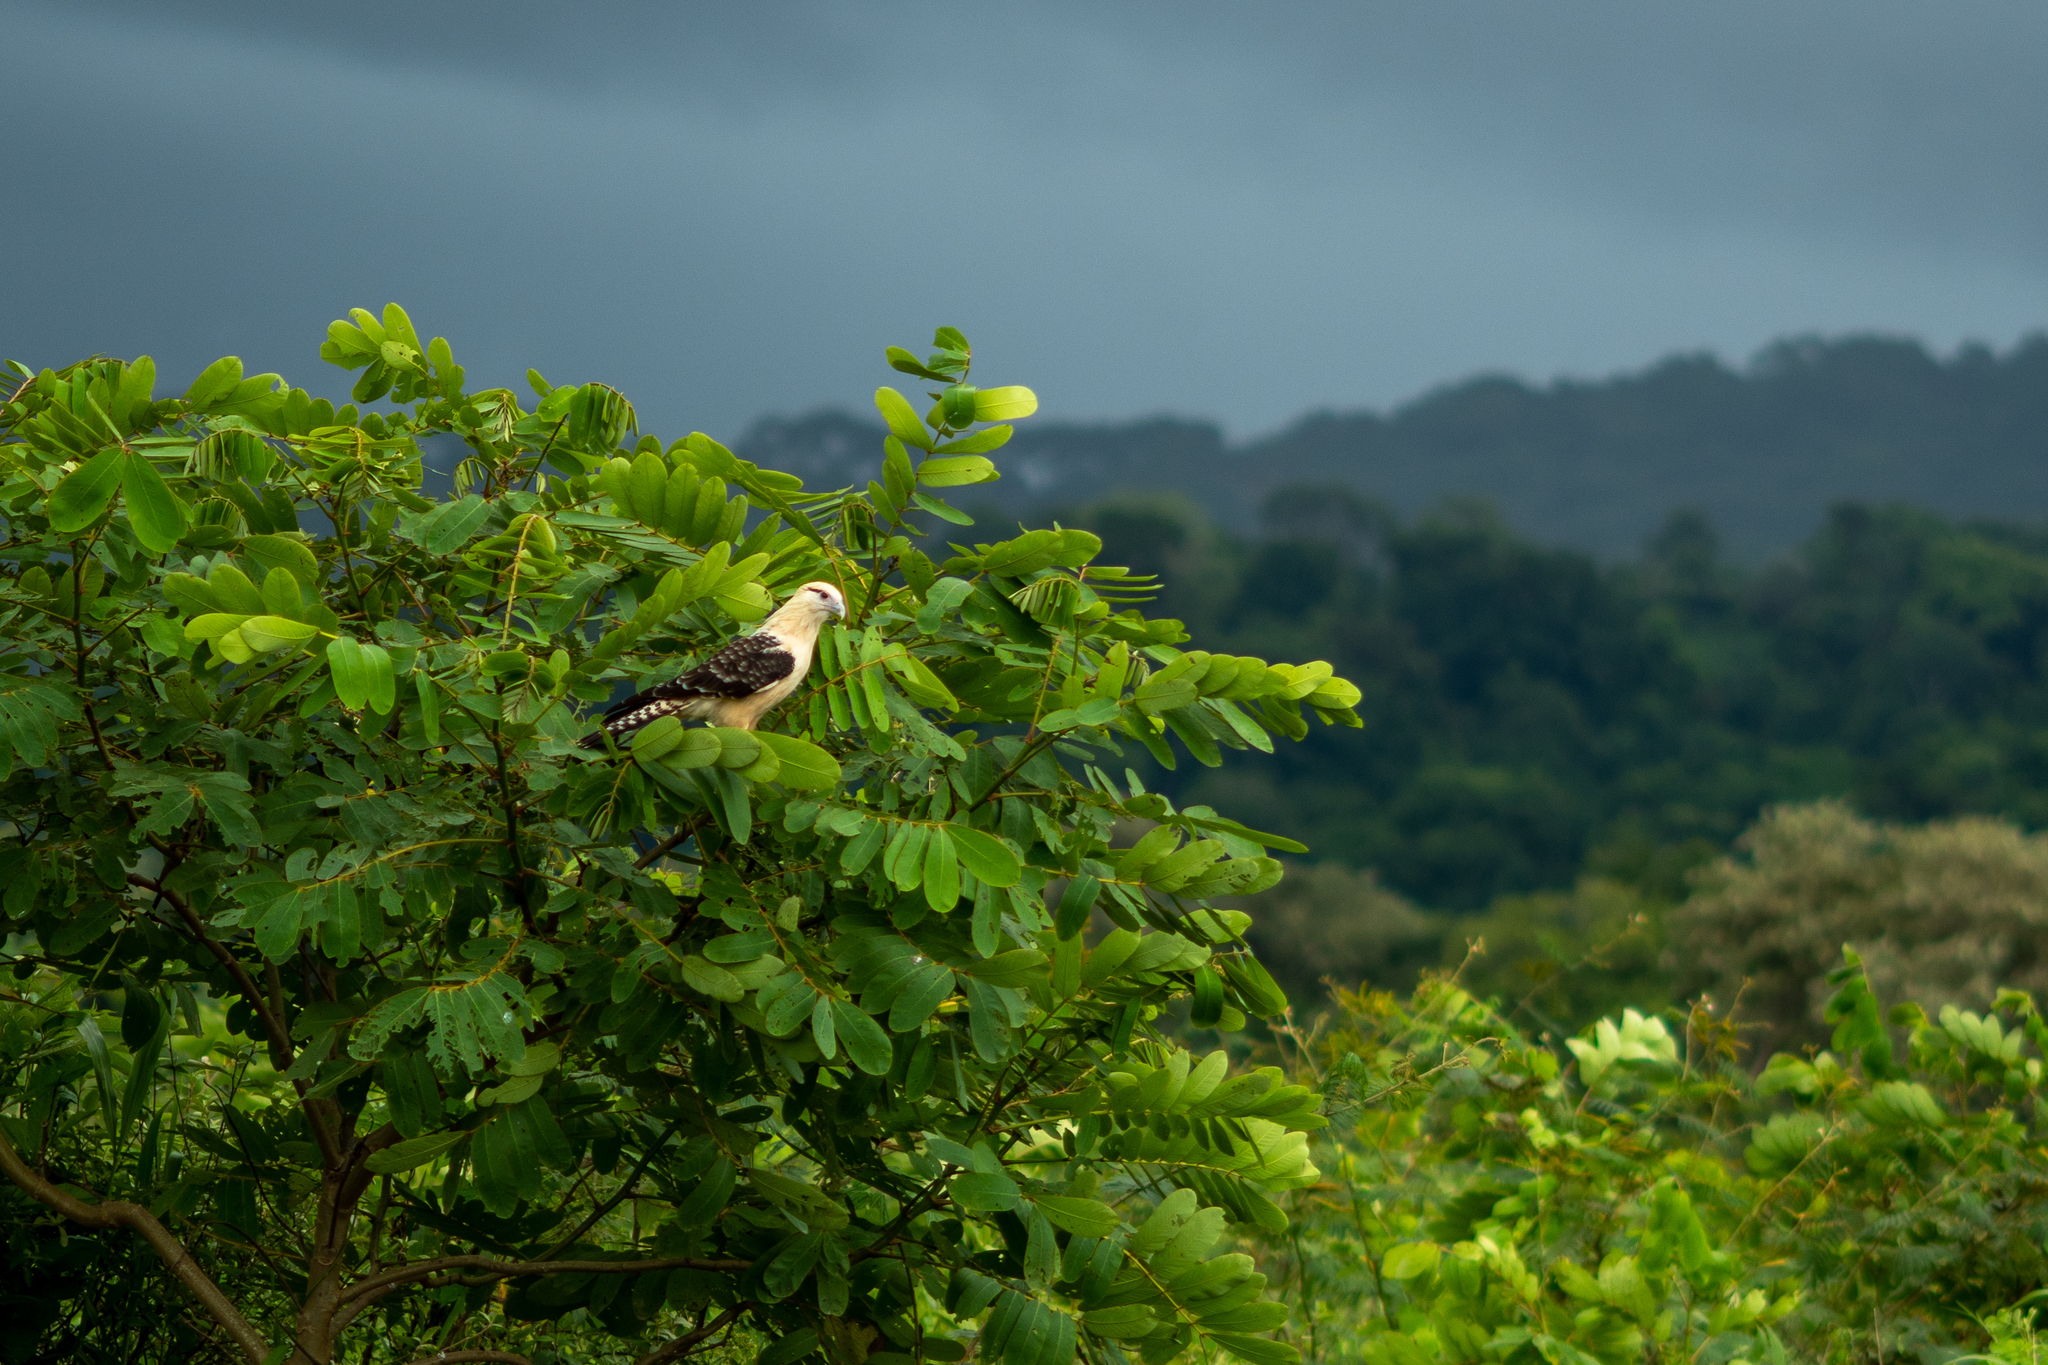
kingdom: Animalia
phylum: Chordata
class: Aves
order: Falconiformes
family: Falconidae
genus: Daptrius
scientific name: Daptrius
